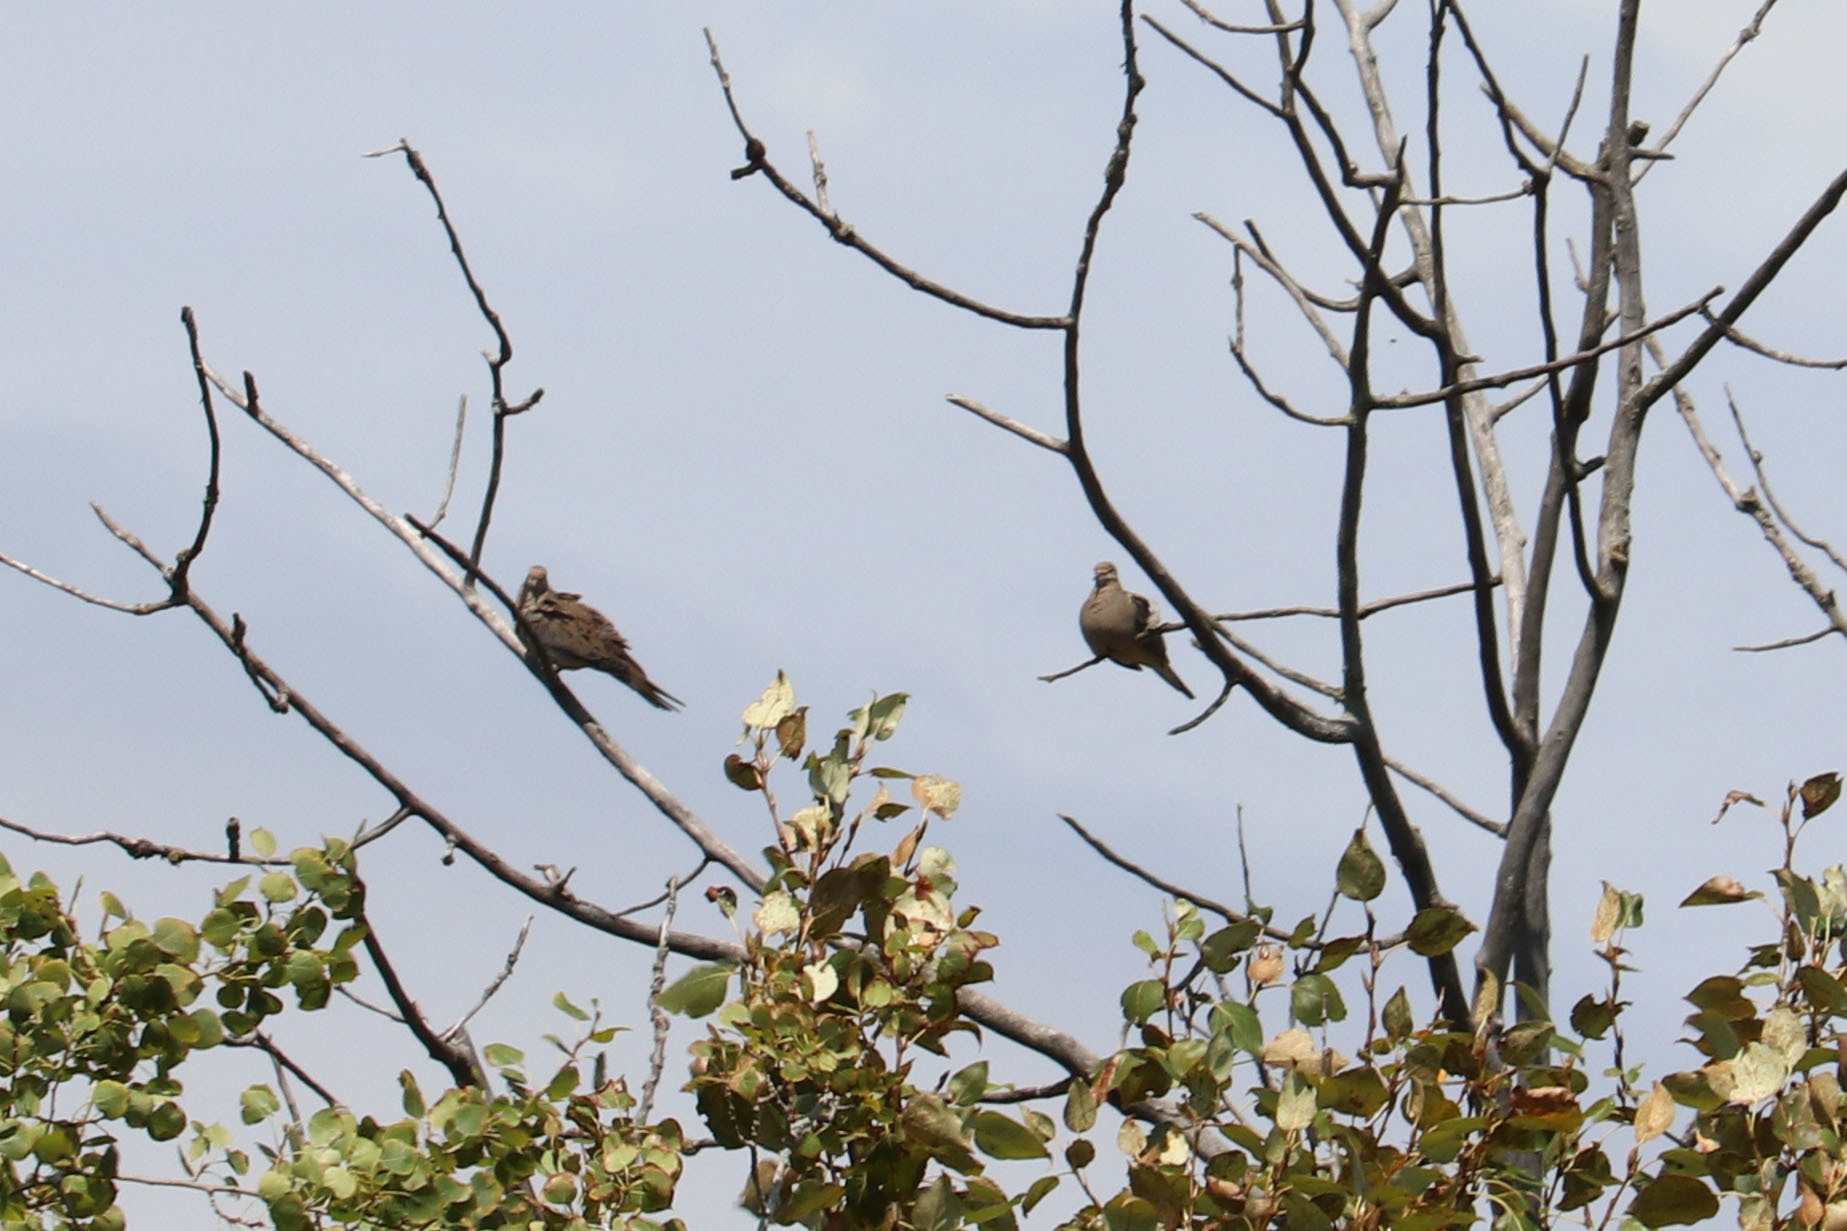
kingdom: Animalia
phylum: Chordata
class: Aves
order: Columbiformes
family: Columbidae
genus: Zenaida
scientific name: Zenaida macroura
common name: Mourning dove
